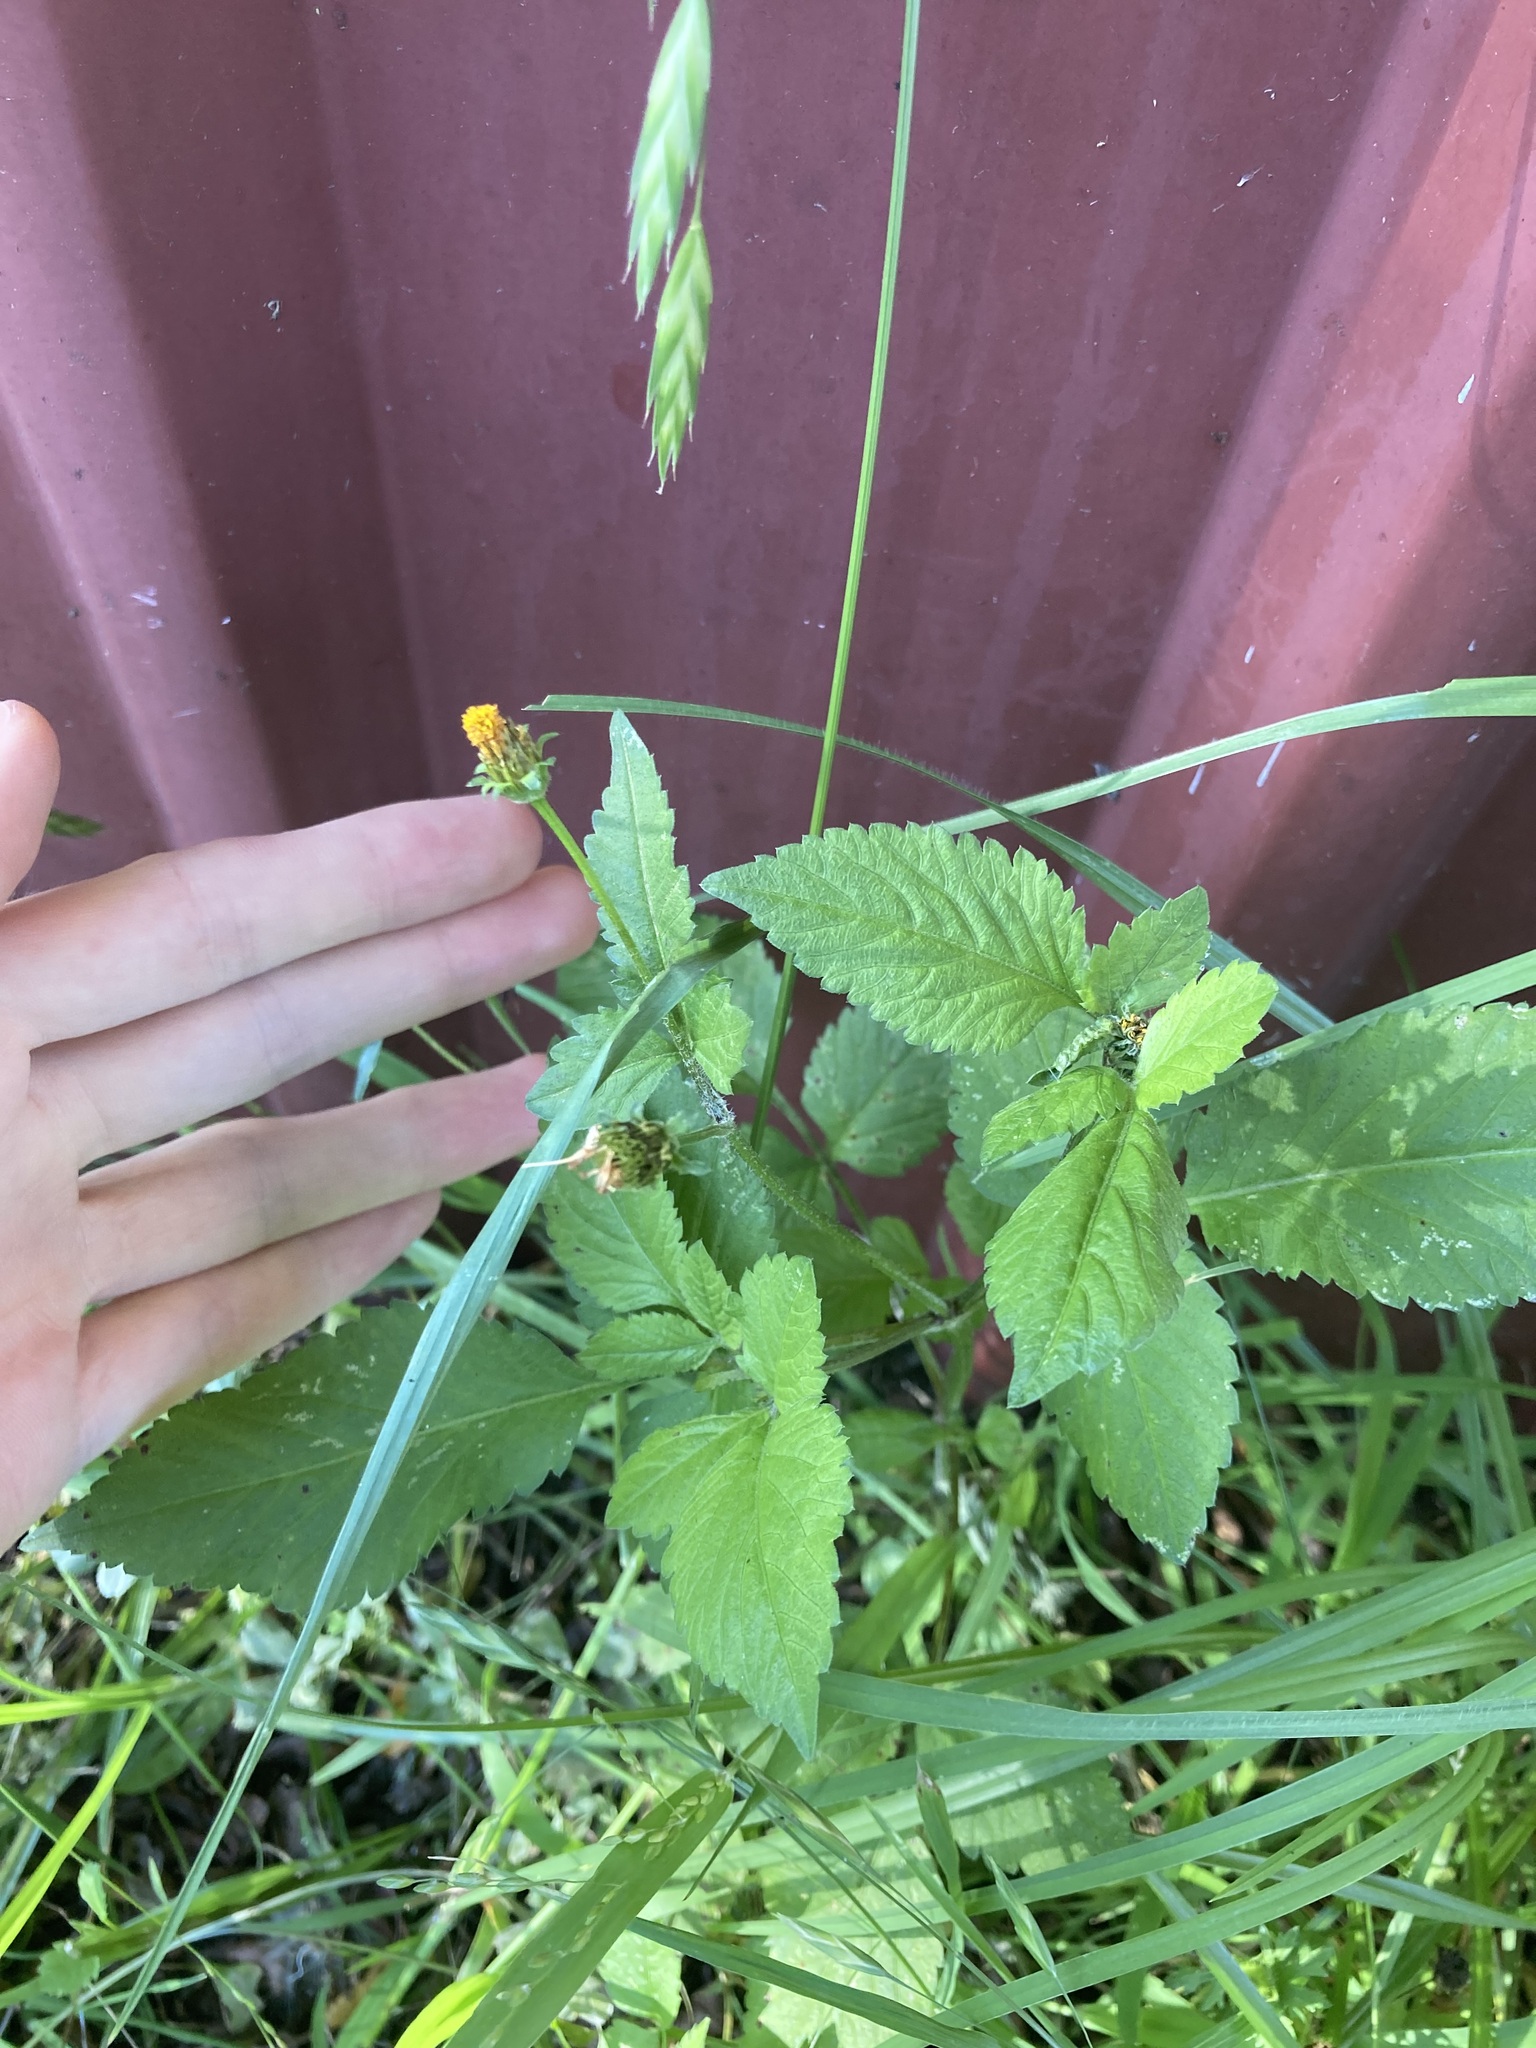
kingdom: Plantae
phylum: Tracheophyta
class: Magnoliopsida
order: Asterales
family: Asteraceae
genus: Bidens
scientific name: Bidens pilosa
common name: Black-jack
